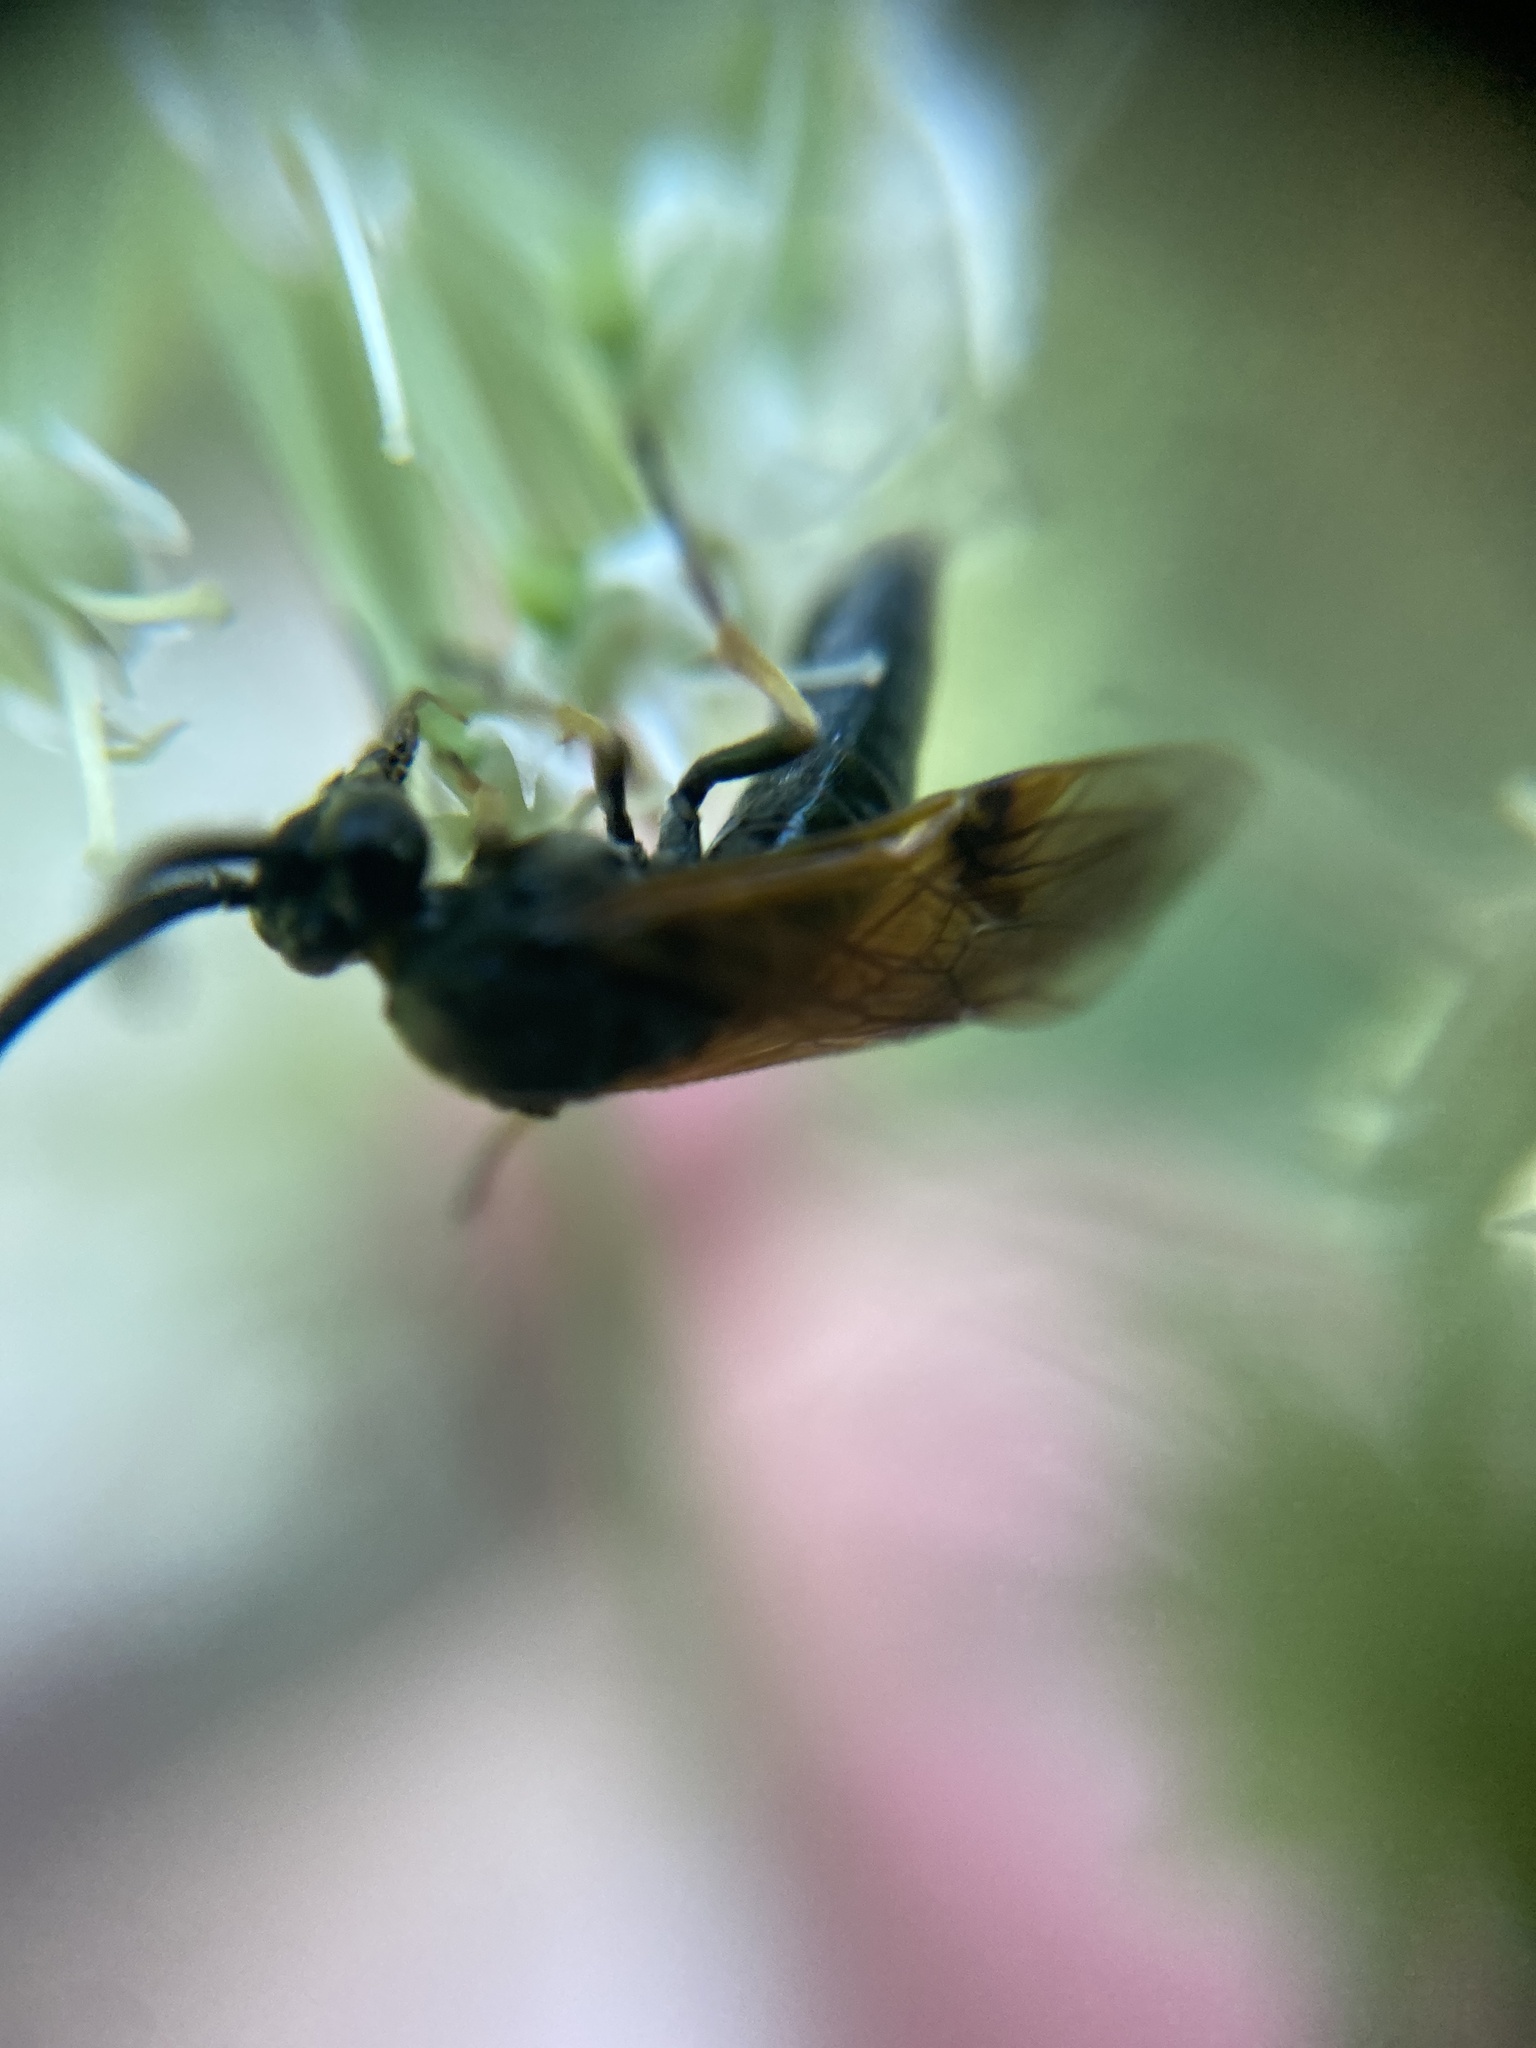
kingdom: Animalia
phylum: Arthropoda
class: Insecta
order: Hymenoptera
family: Argidae
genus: Arge
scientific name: Arge ustulata
